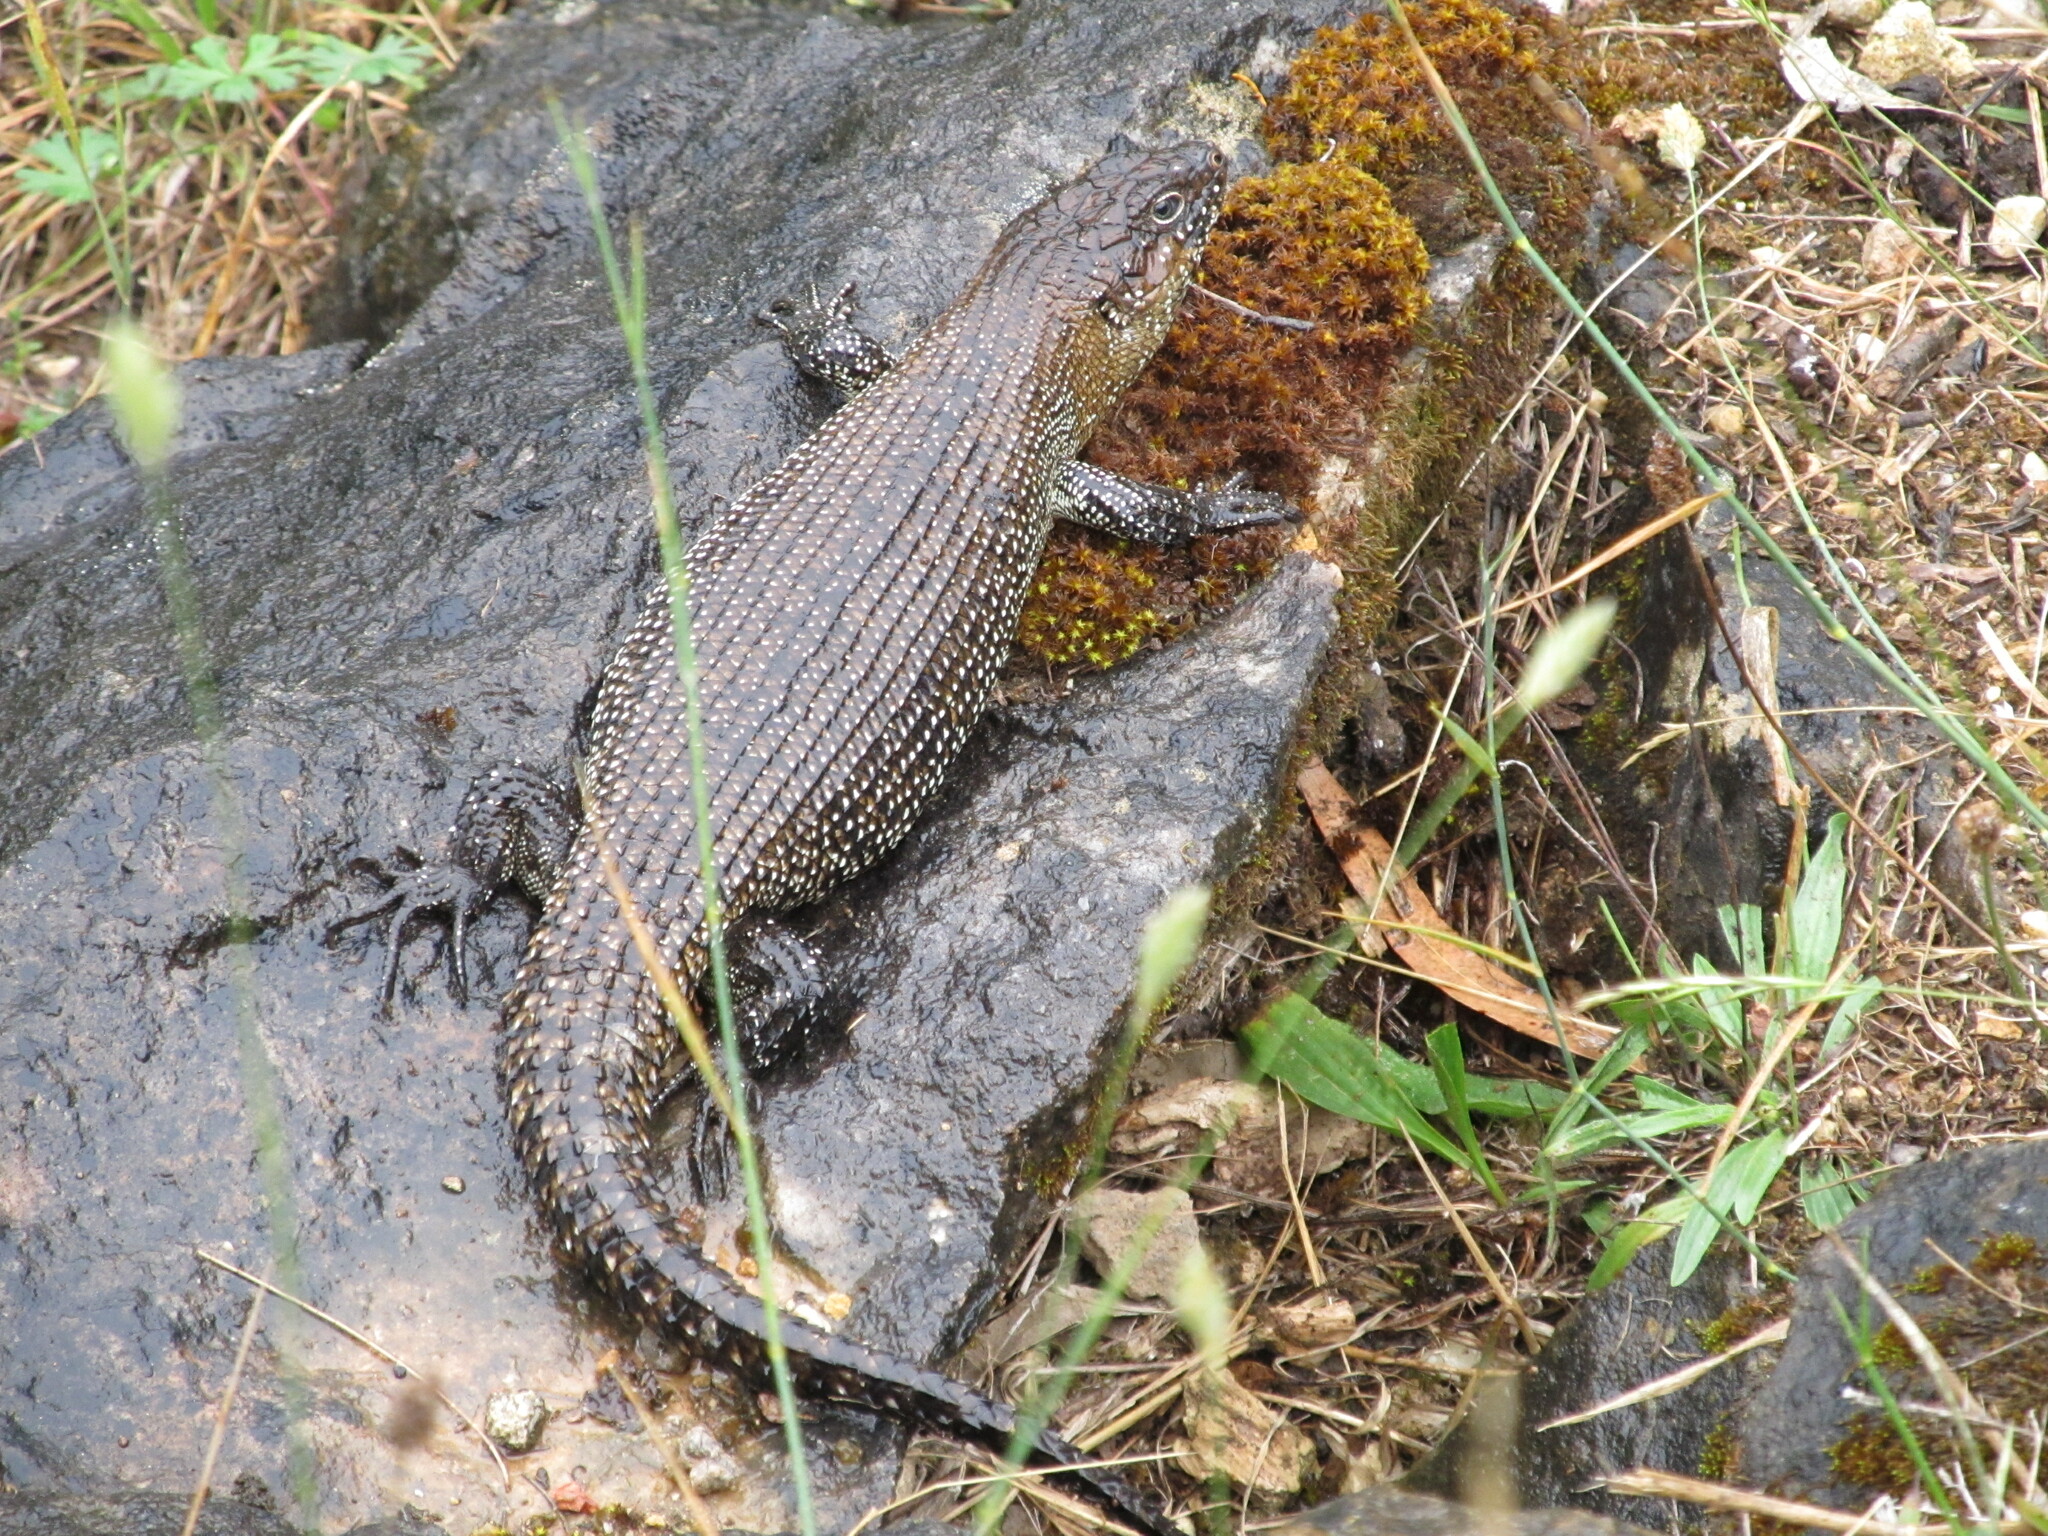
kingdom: Animalia
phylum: Chordata
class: Squamata
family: Scincidae
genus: Egernia
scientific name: Egernia cunninghami
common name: Cunningham's skink
